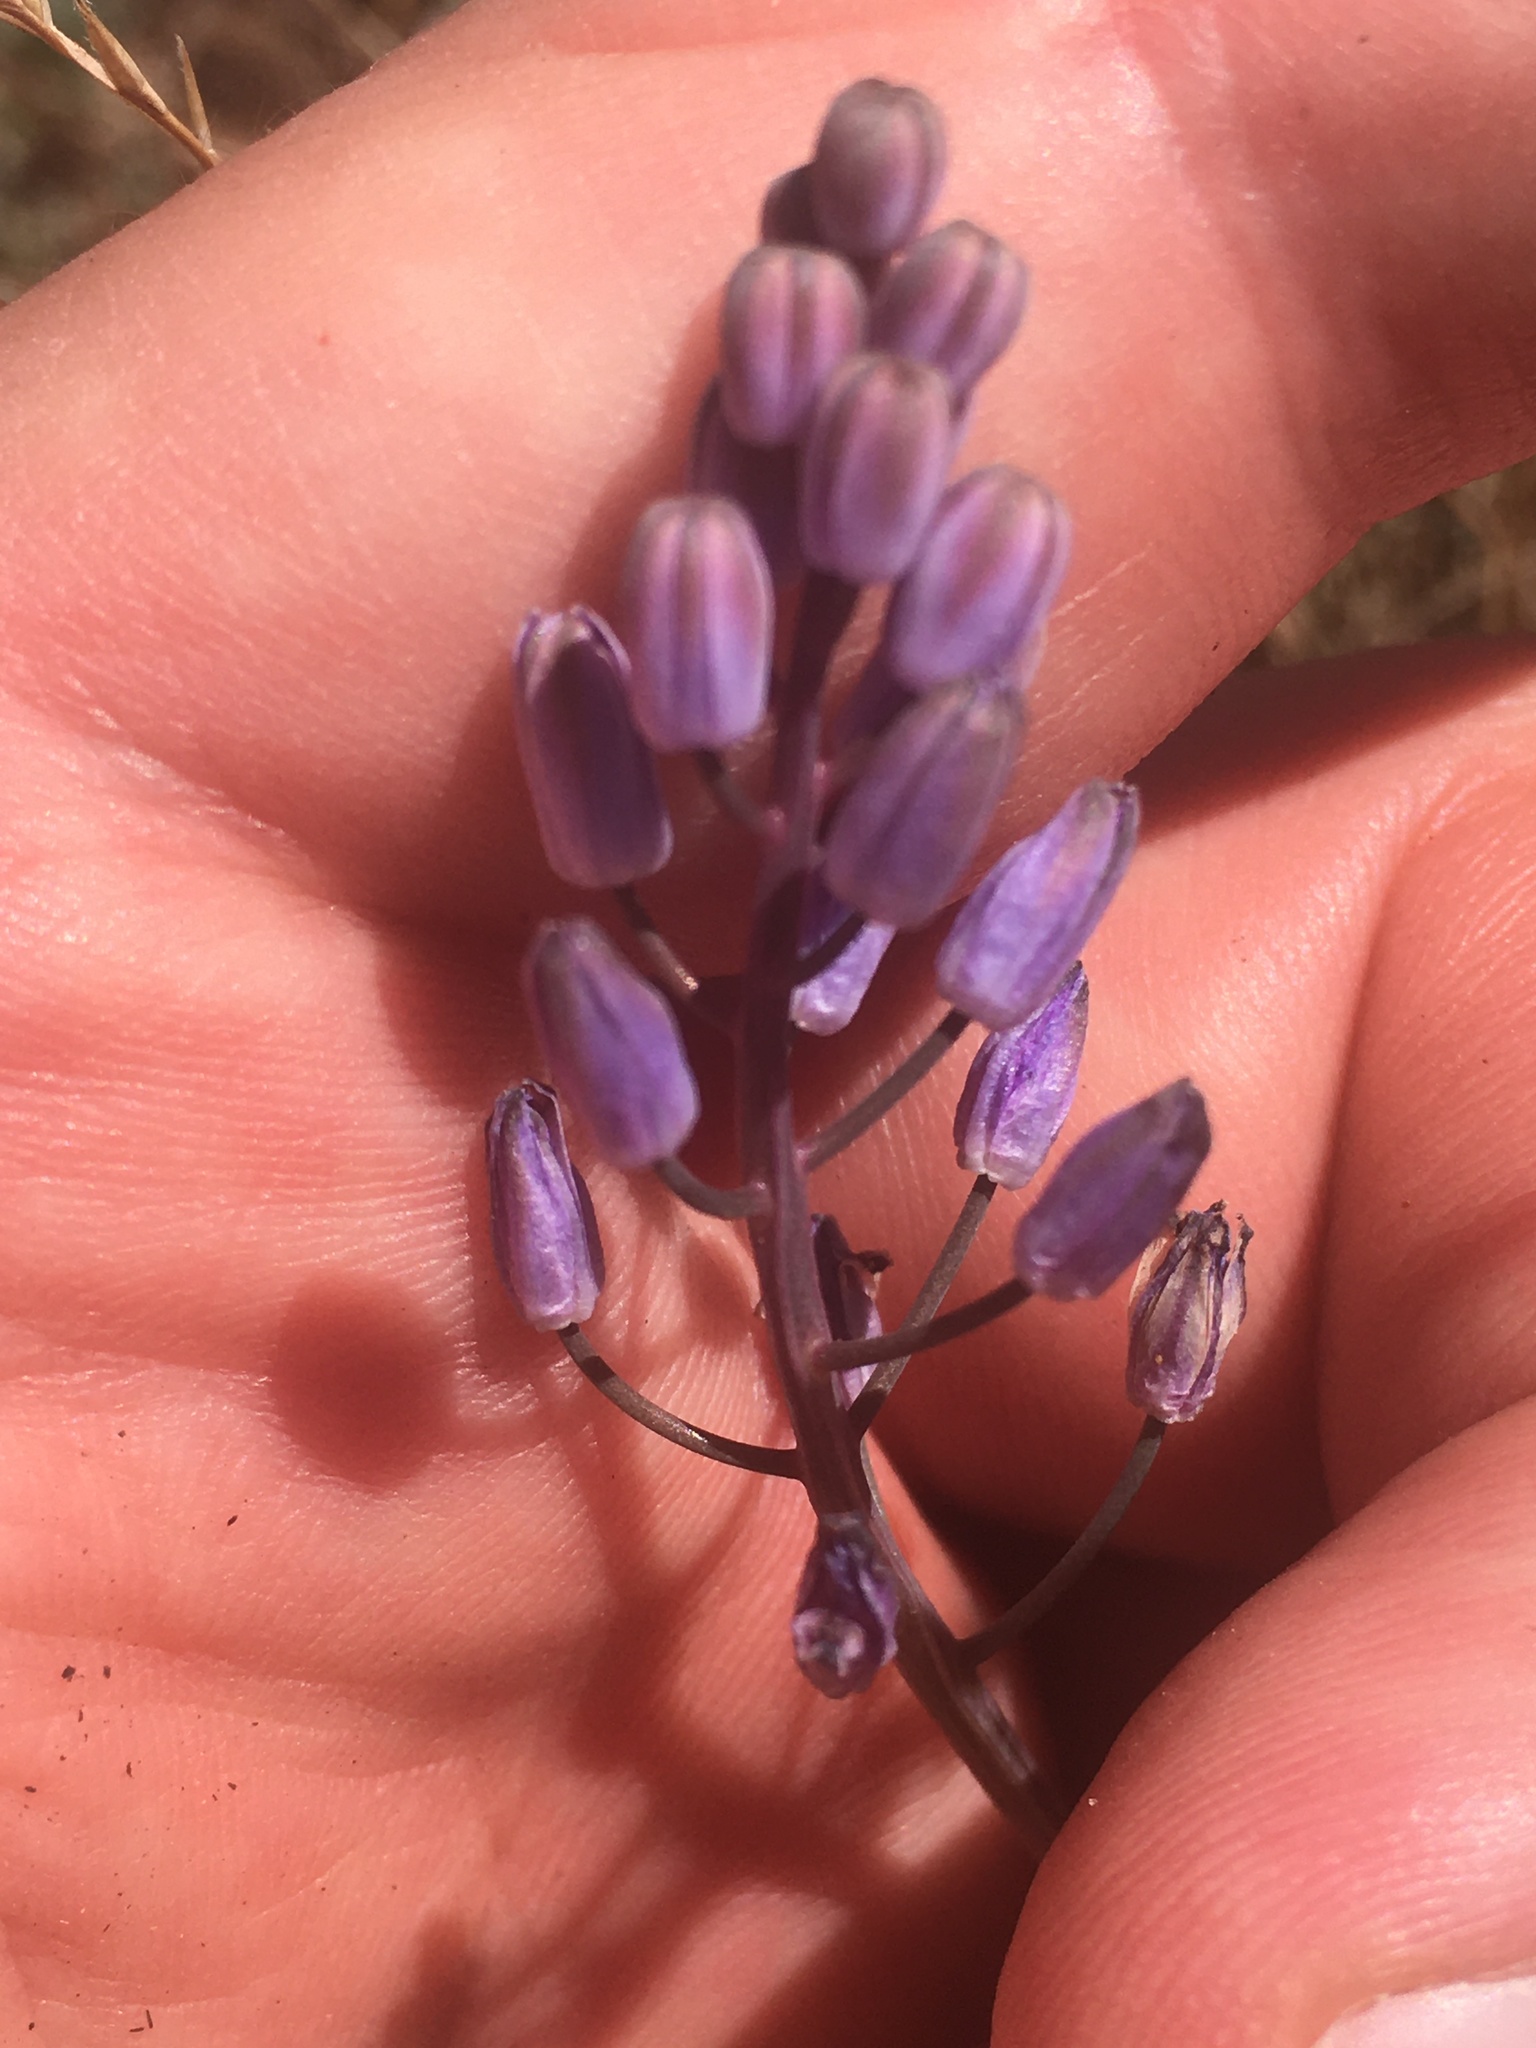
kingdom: Plantae
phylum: Tracheophyta
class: Liliopsida
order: Asparagales
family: Asparagaceae
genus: Prospero
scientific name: Prospero autumnale
